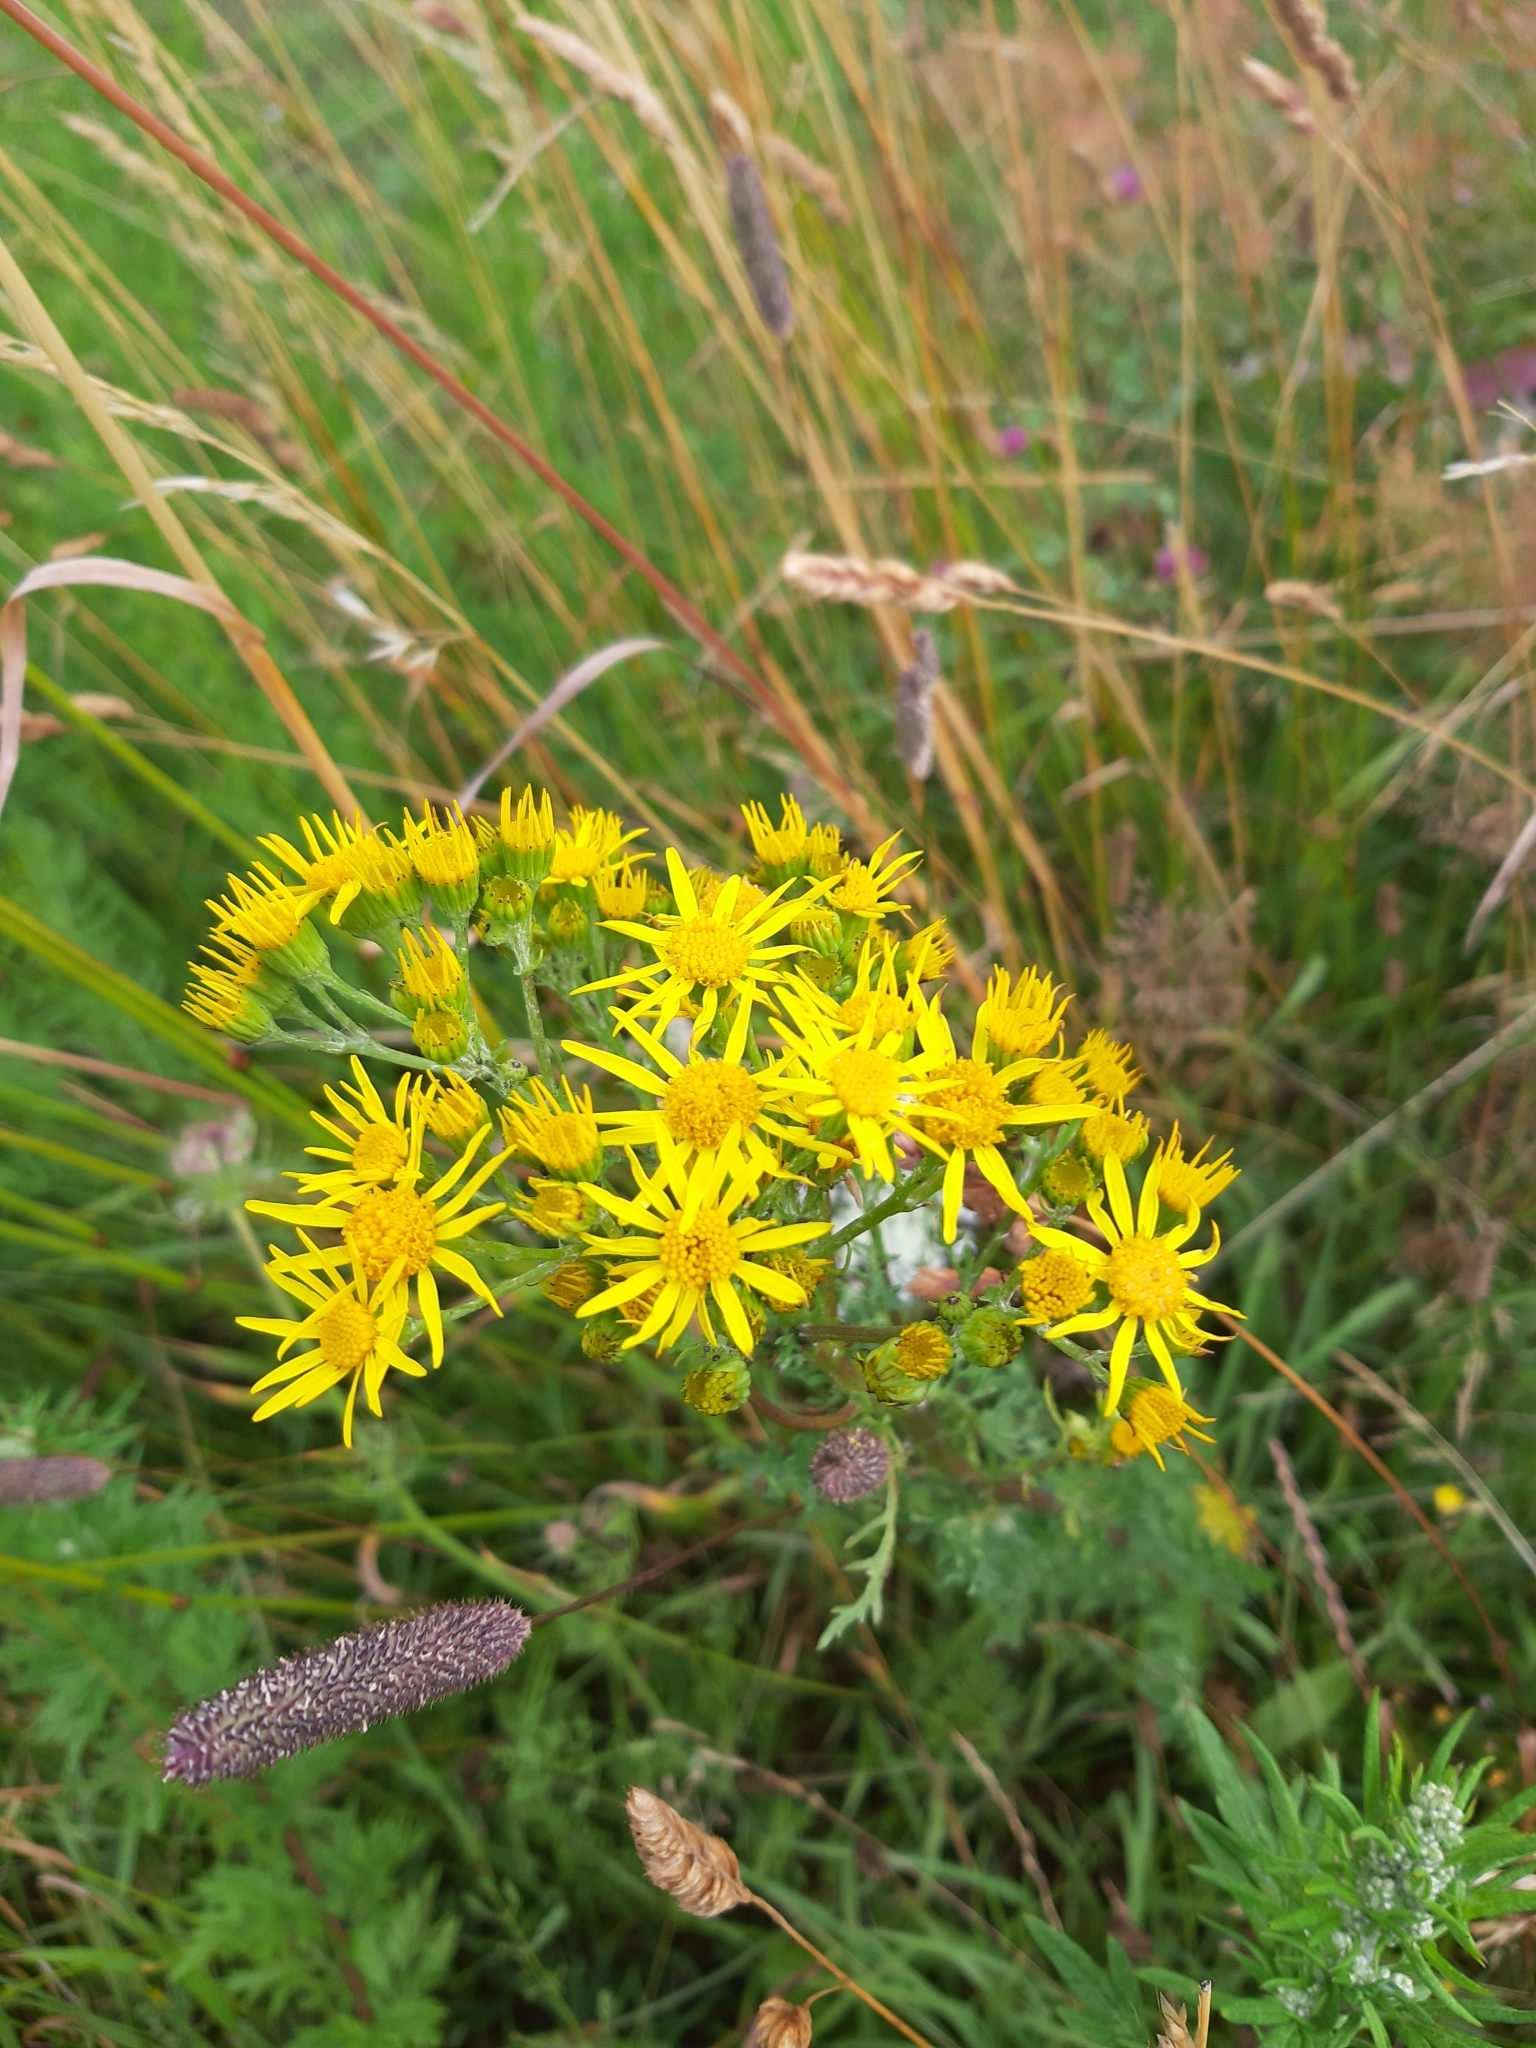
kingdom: Plantae
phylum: Tracheophyta
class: Magnoliopsida
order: Asterales
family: Asteraceae
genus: Jacobaea
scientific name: Jacobaea vulgaris
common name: Stinking willie
